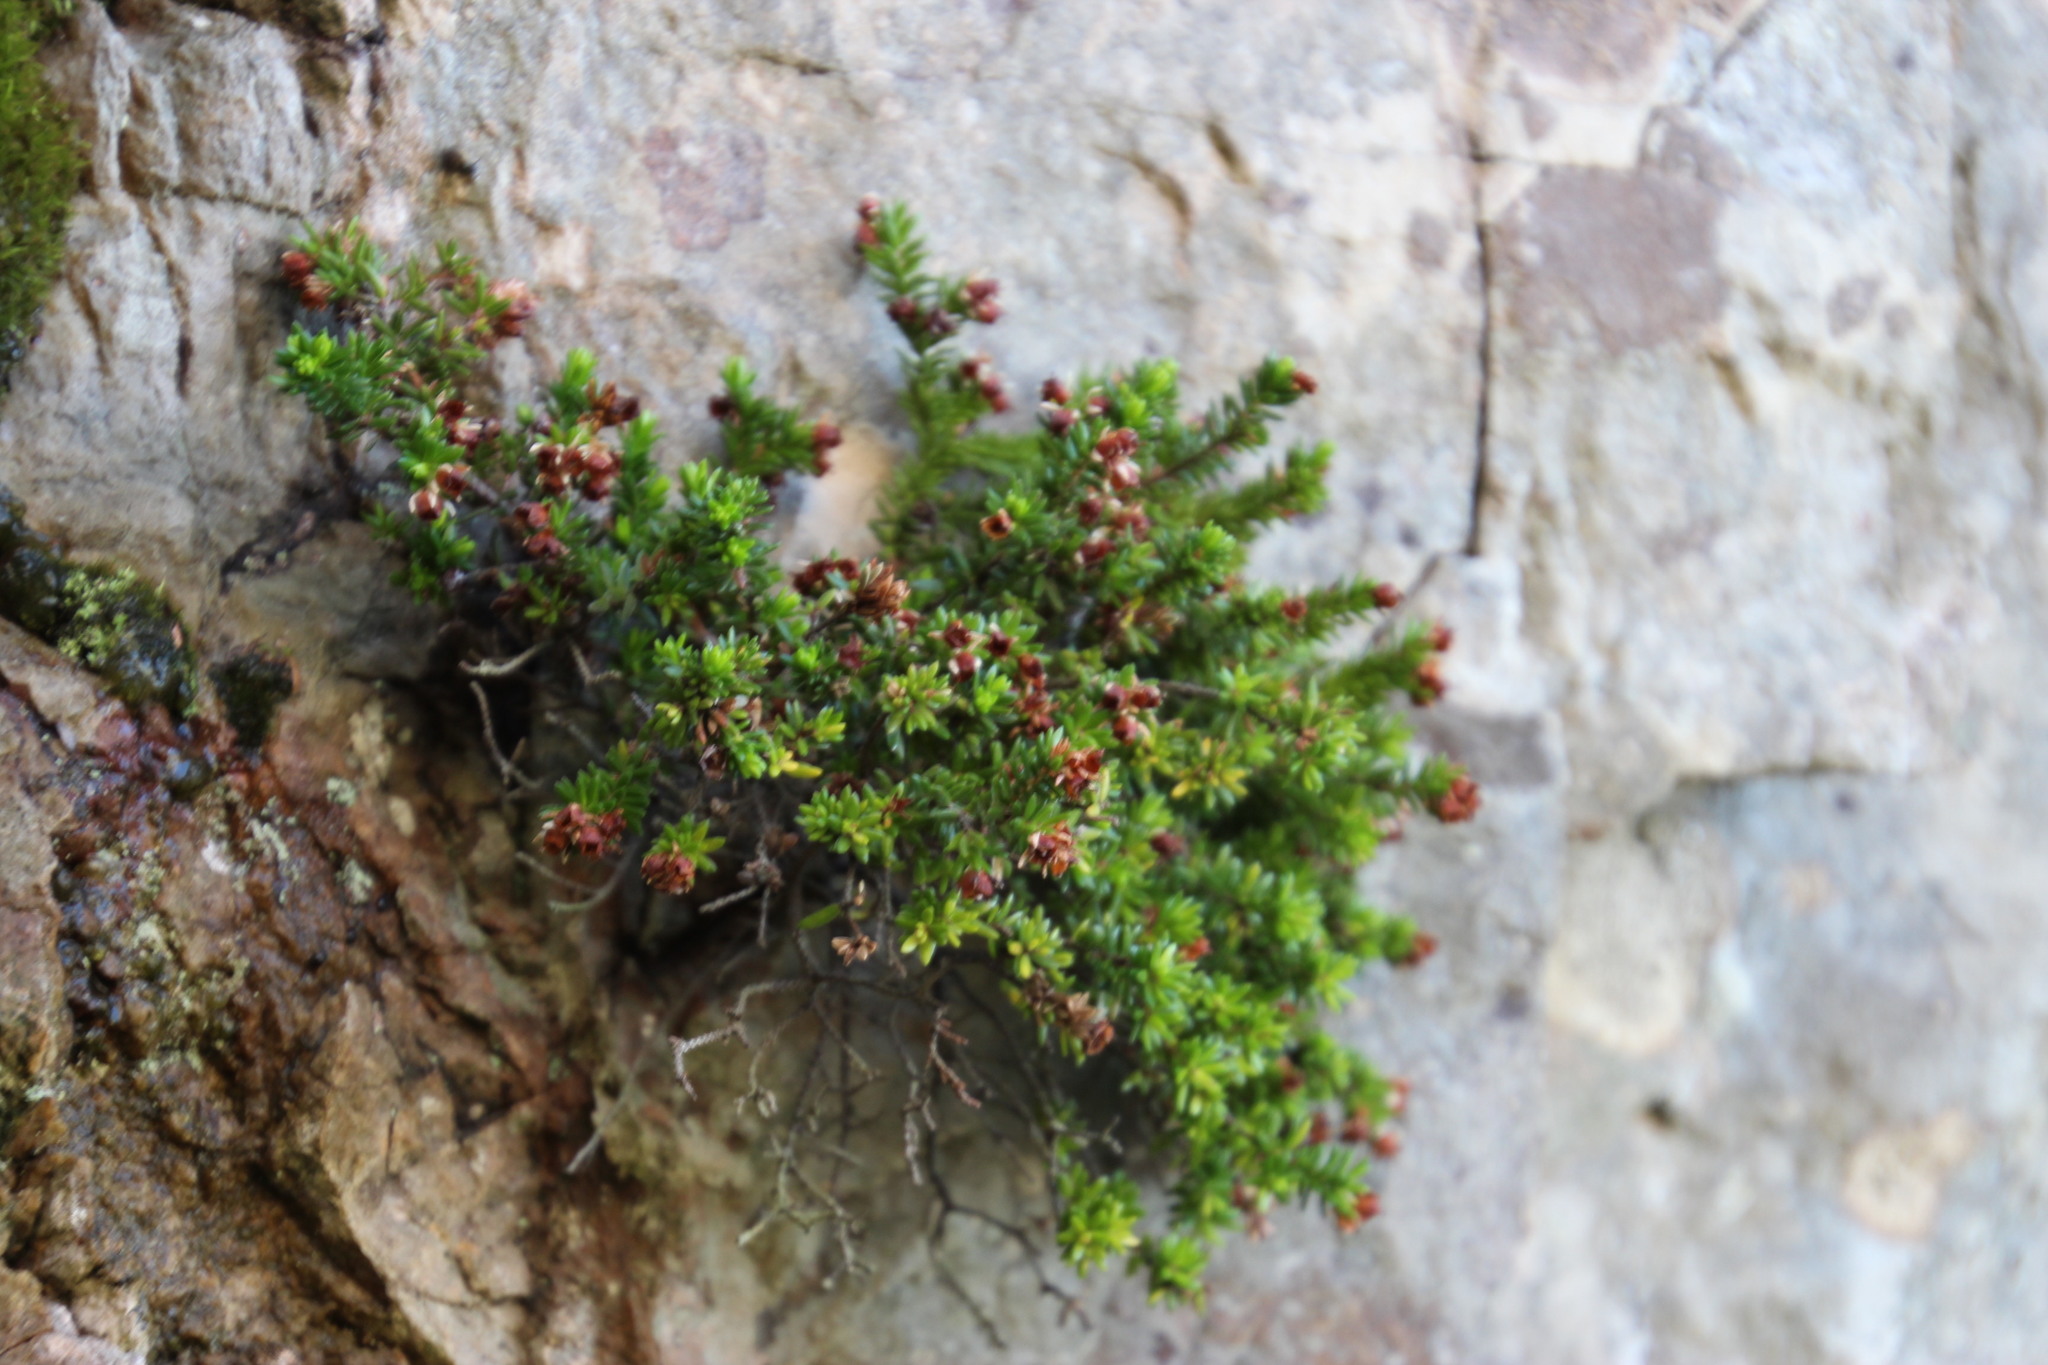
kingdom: Plantae
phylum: Tracheophyta
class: Magnoliopsida
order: Ericales
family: Ericaceae
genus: Erica
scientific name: Erica depressa
